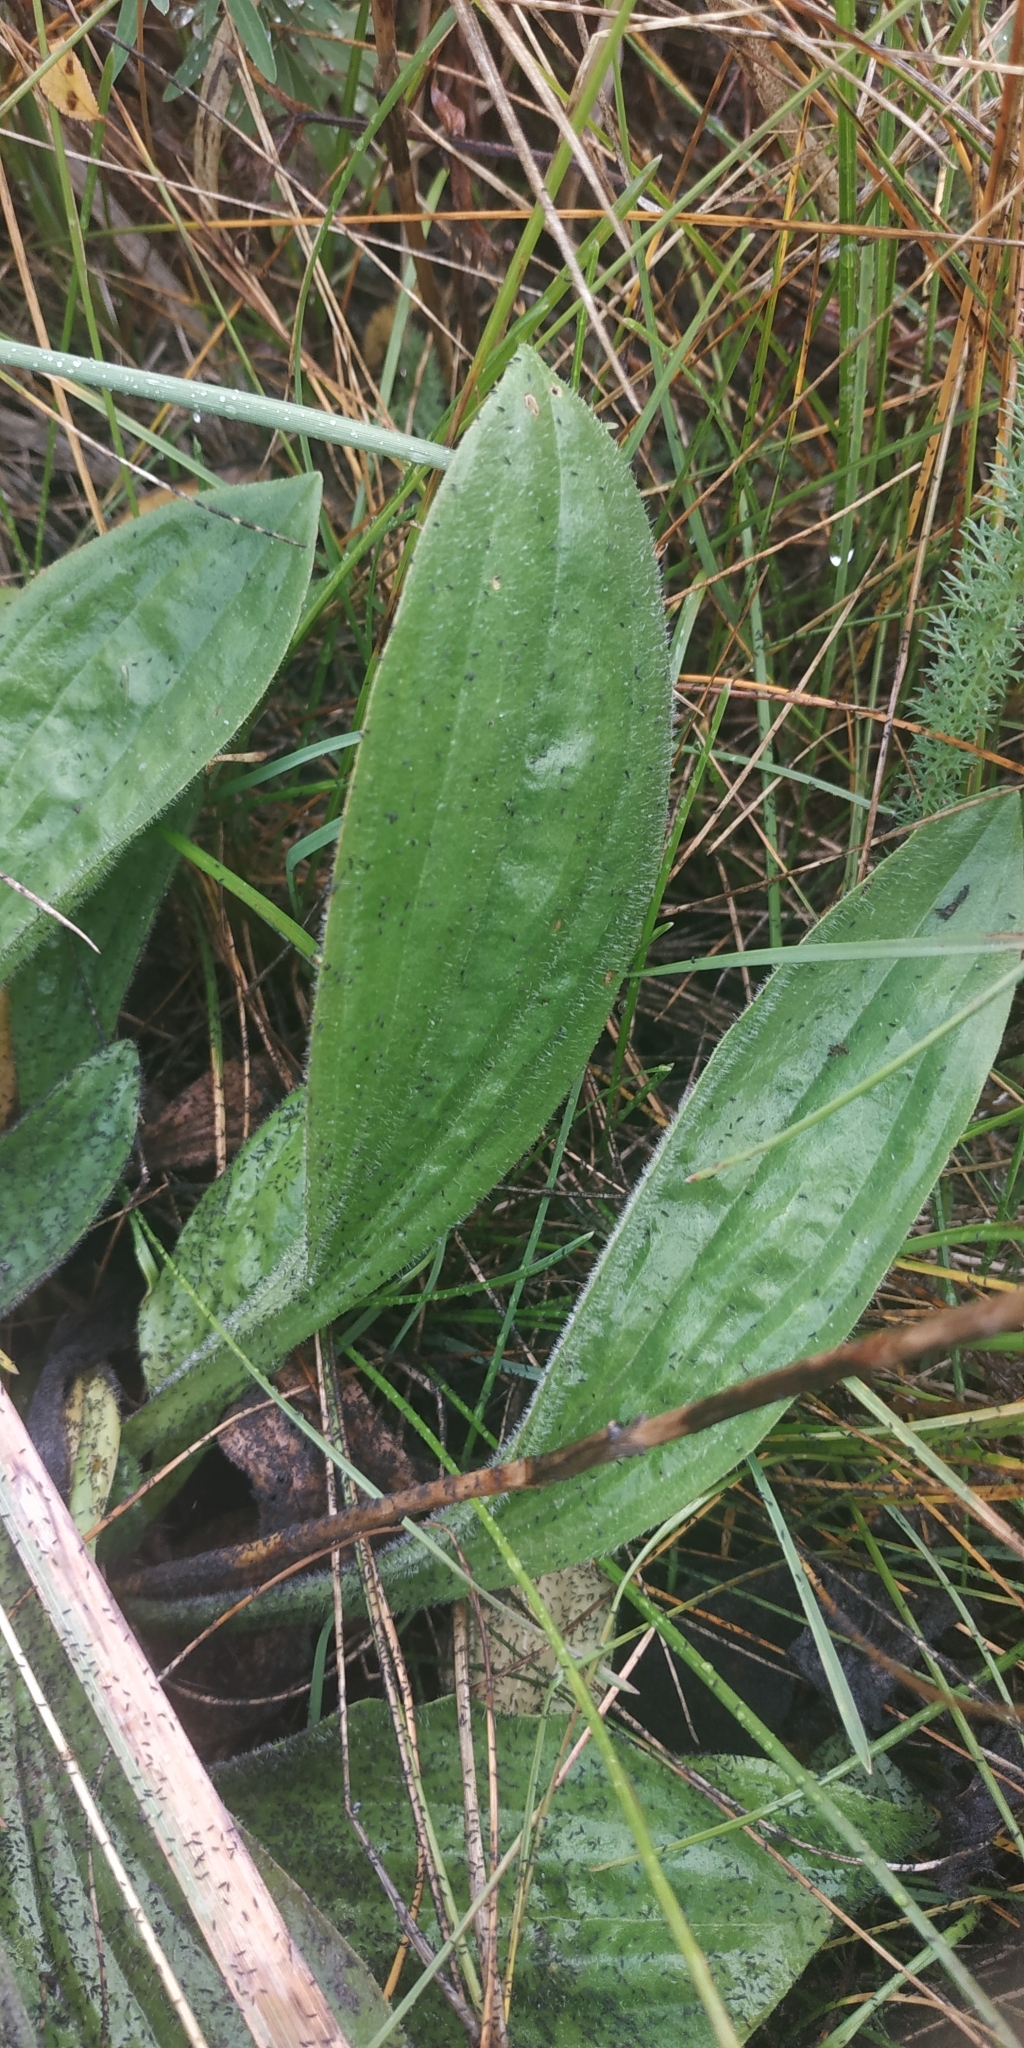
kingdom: Plantae
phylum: Tracheophyta
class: Magnoliopsida
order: Lamiales
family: Plantaginaceae
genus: Plantago
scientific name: Plantago media
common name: Hoary plantain
